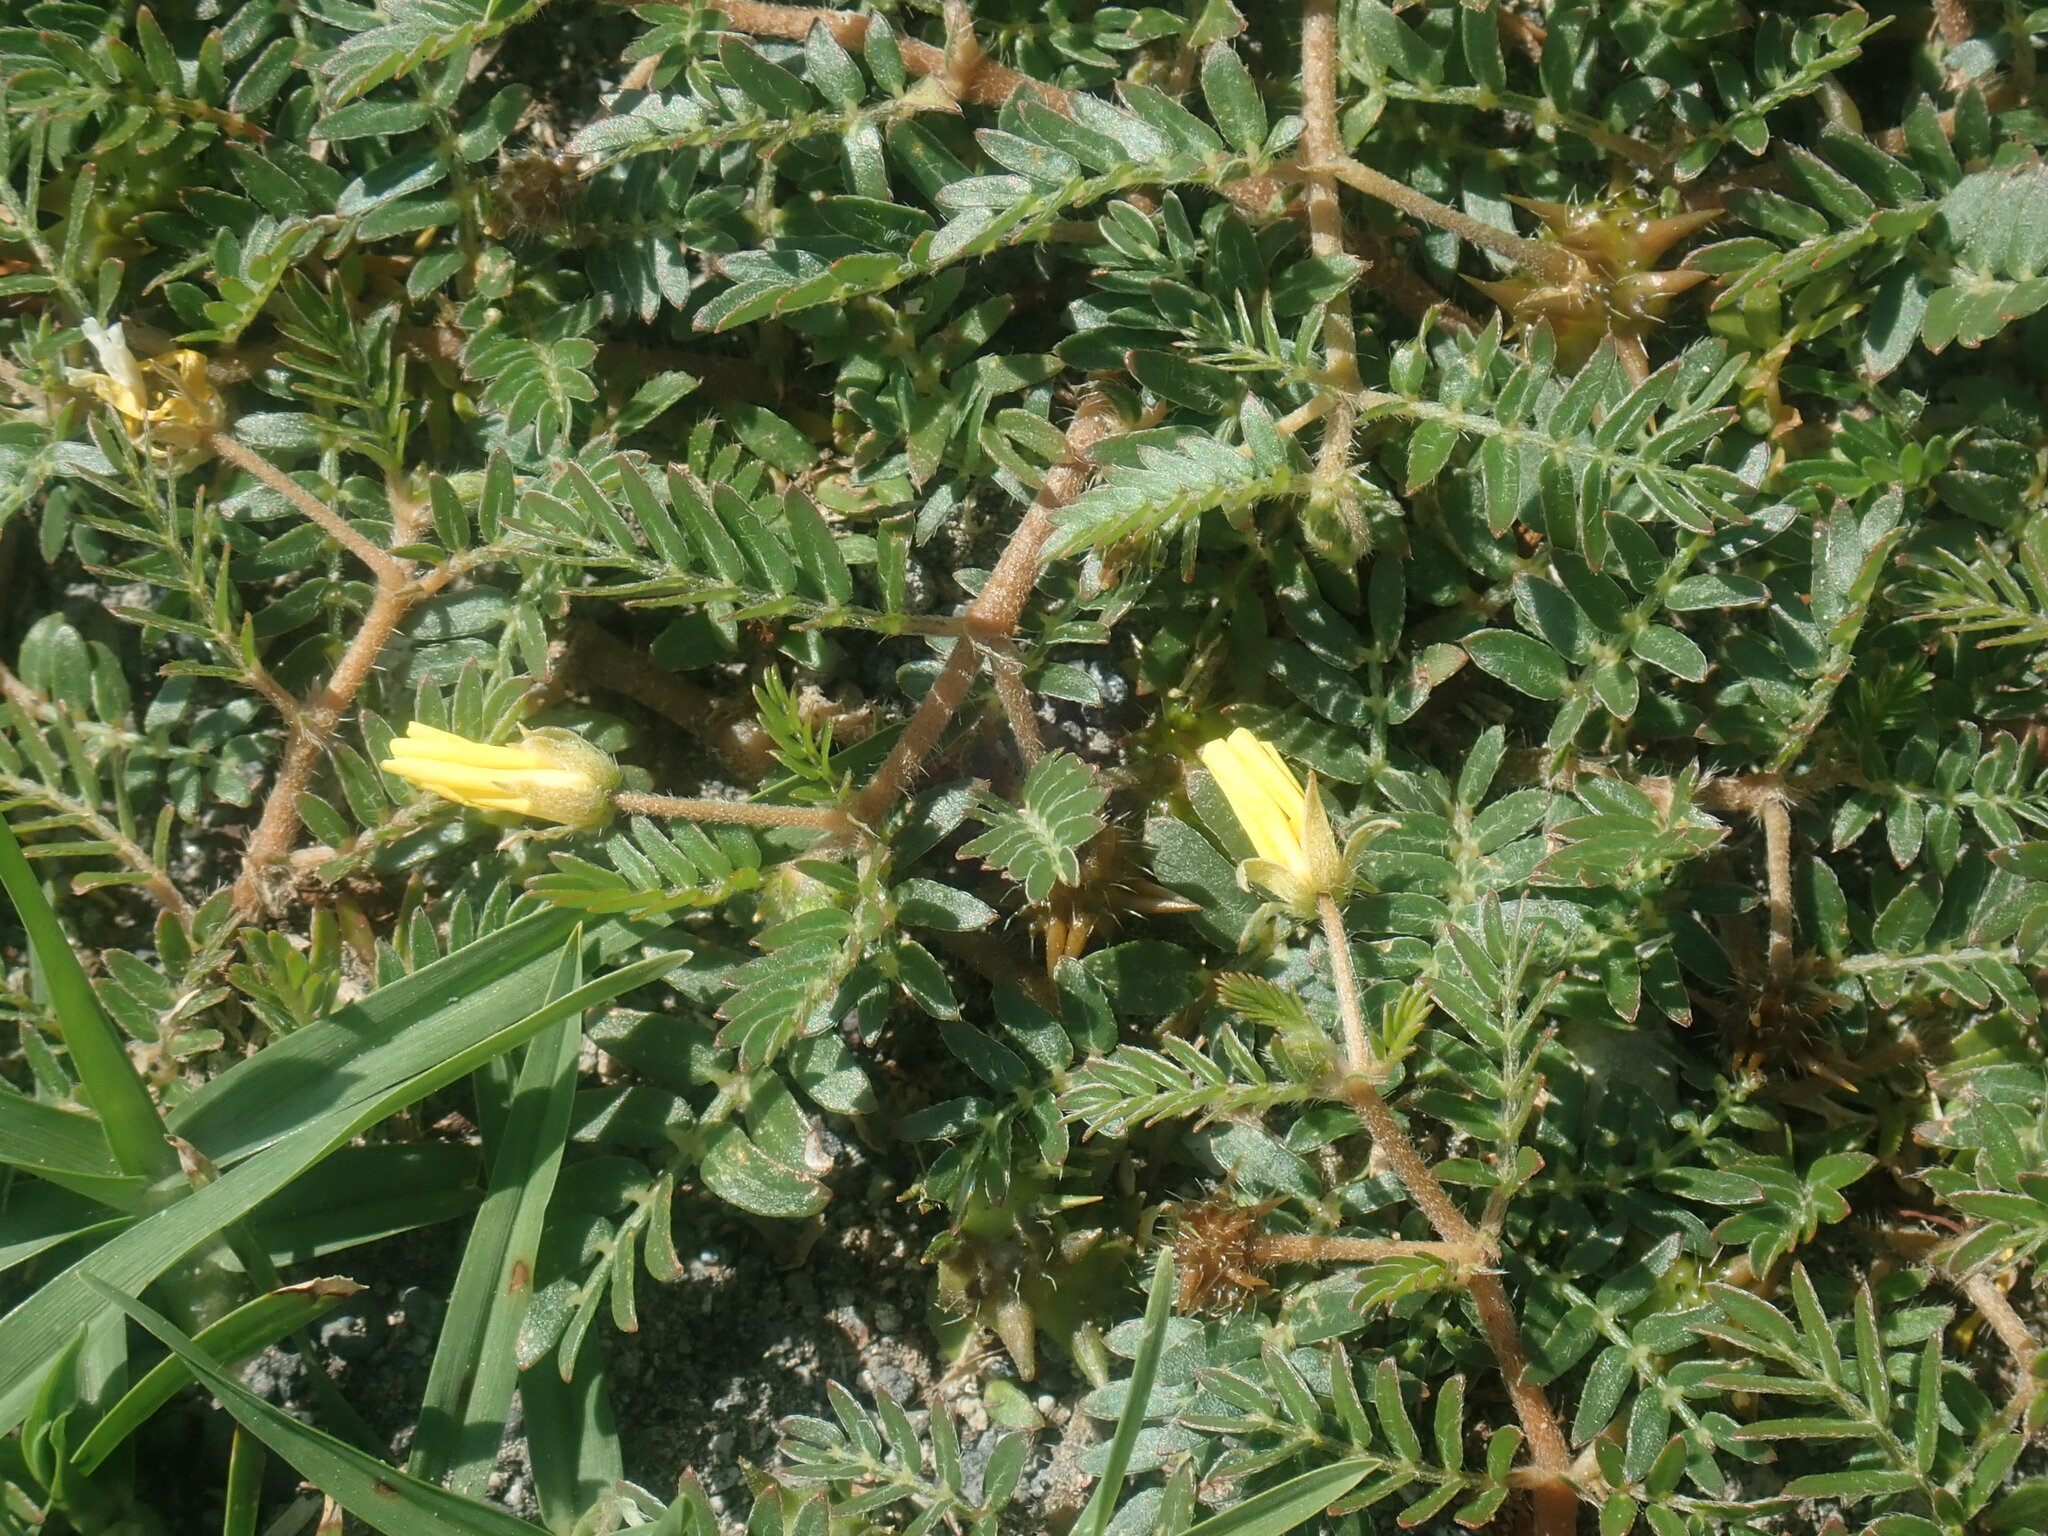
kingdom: Plantae
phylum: Tracheophyta
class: Magnoliopsida
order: Zygophyllales
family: Zygophyllaceae
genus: Tribulus
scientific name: Tribulus cistoides
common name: Jamaican feverplant
